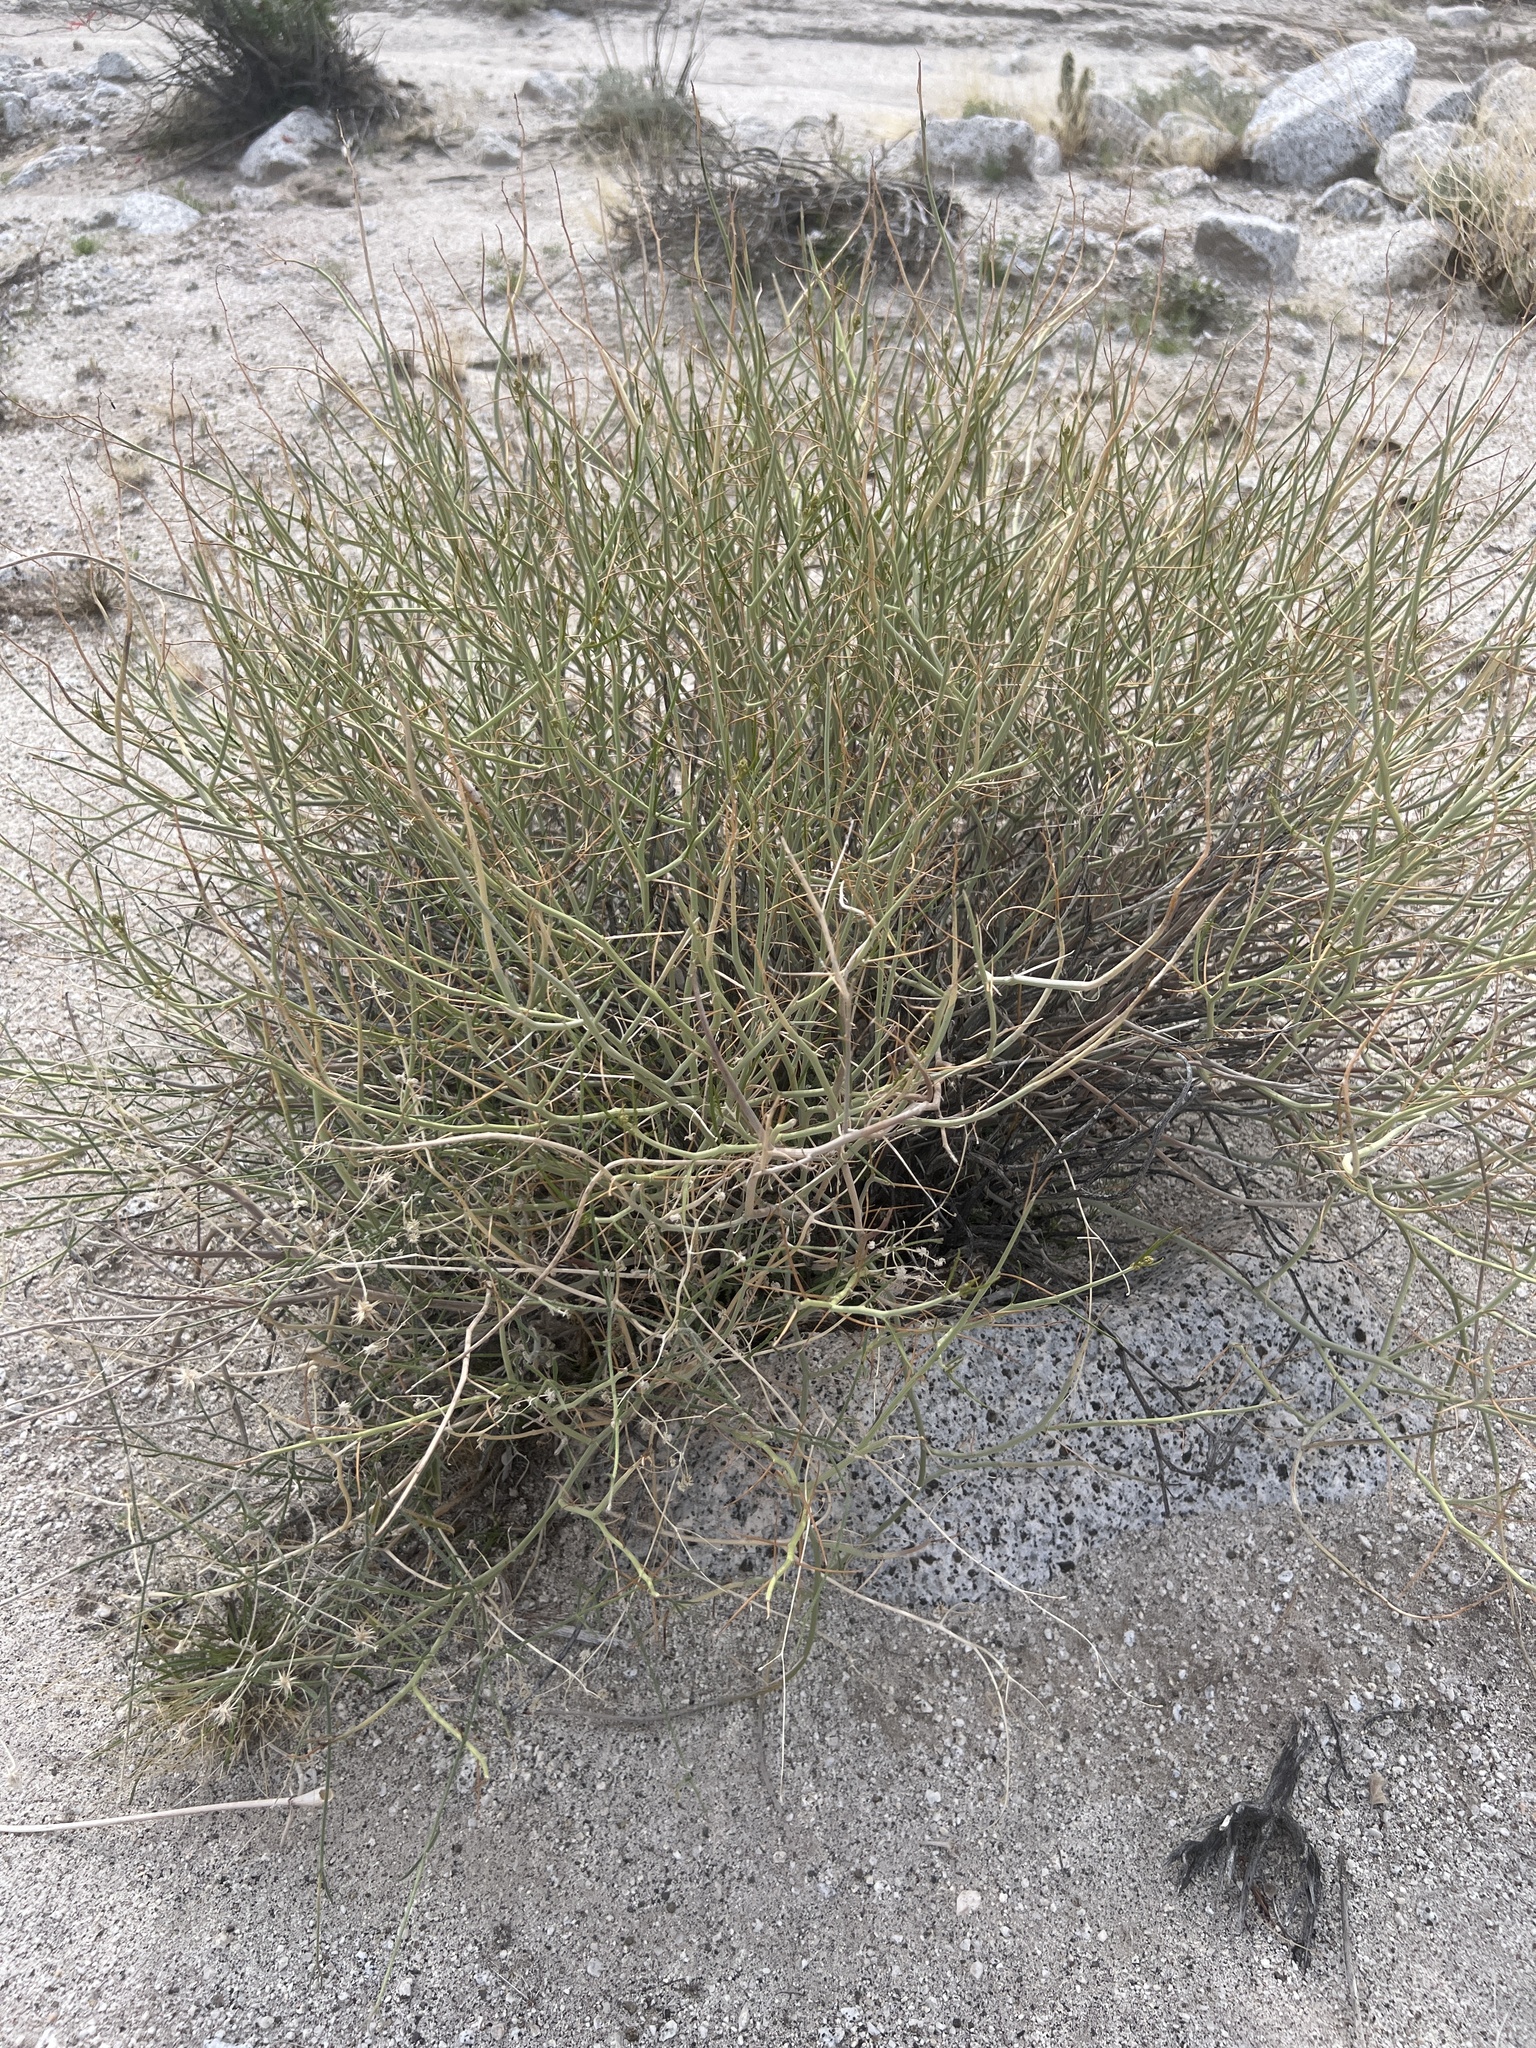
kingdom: Plantae
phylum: Tracheophyta
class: Magnoliopsida
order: Fabales
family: Fabaceae
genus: Senna
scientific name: Senna armata
